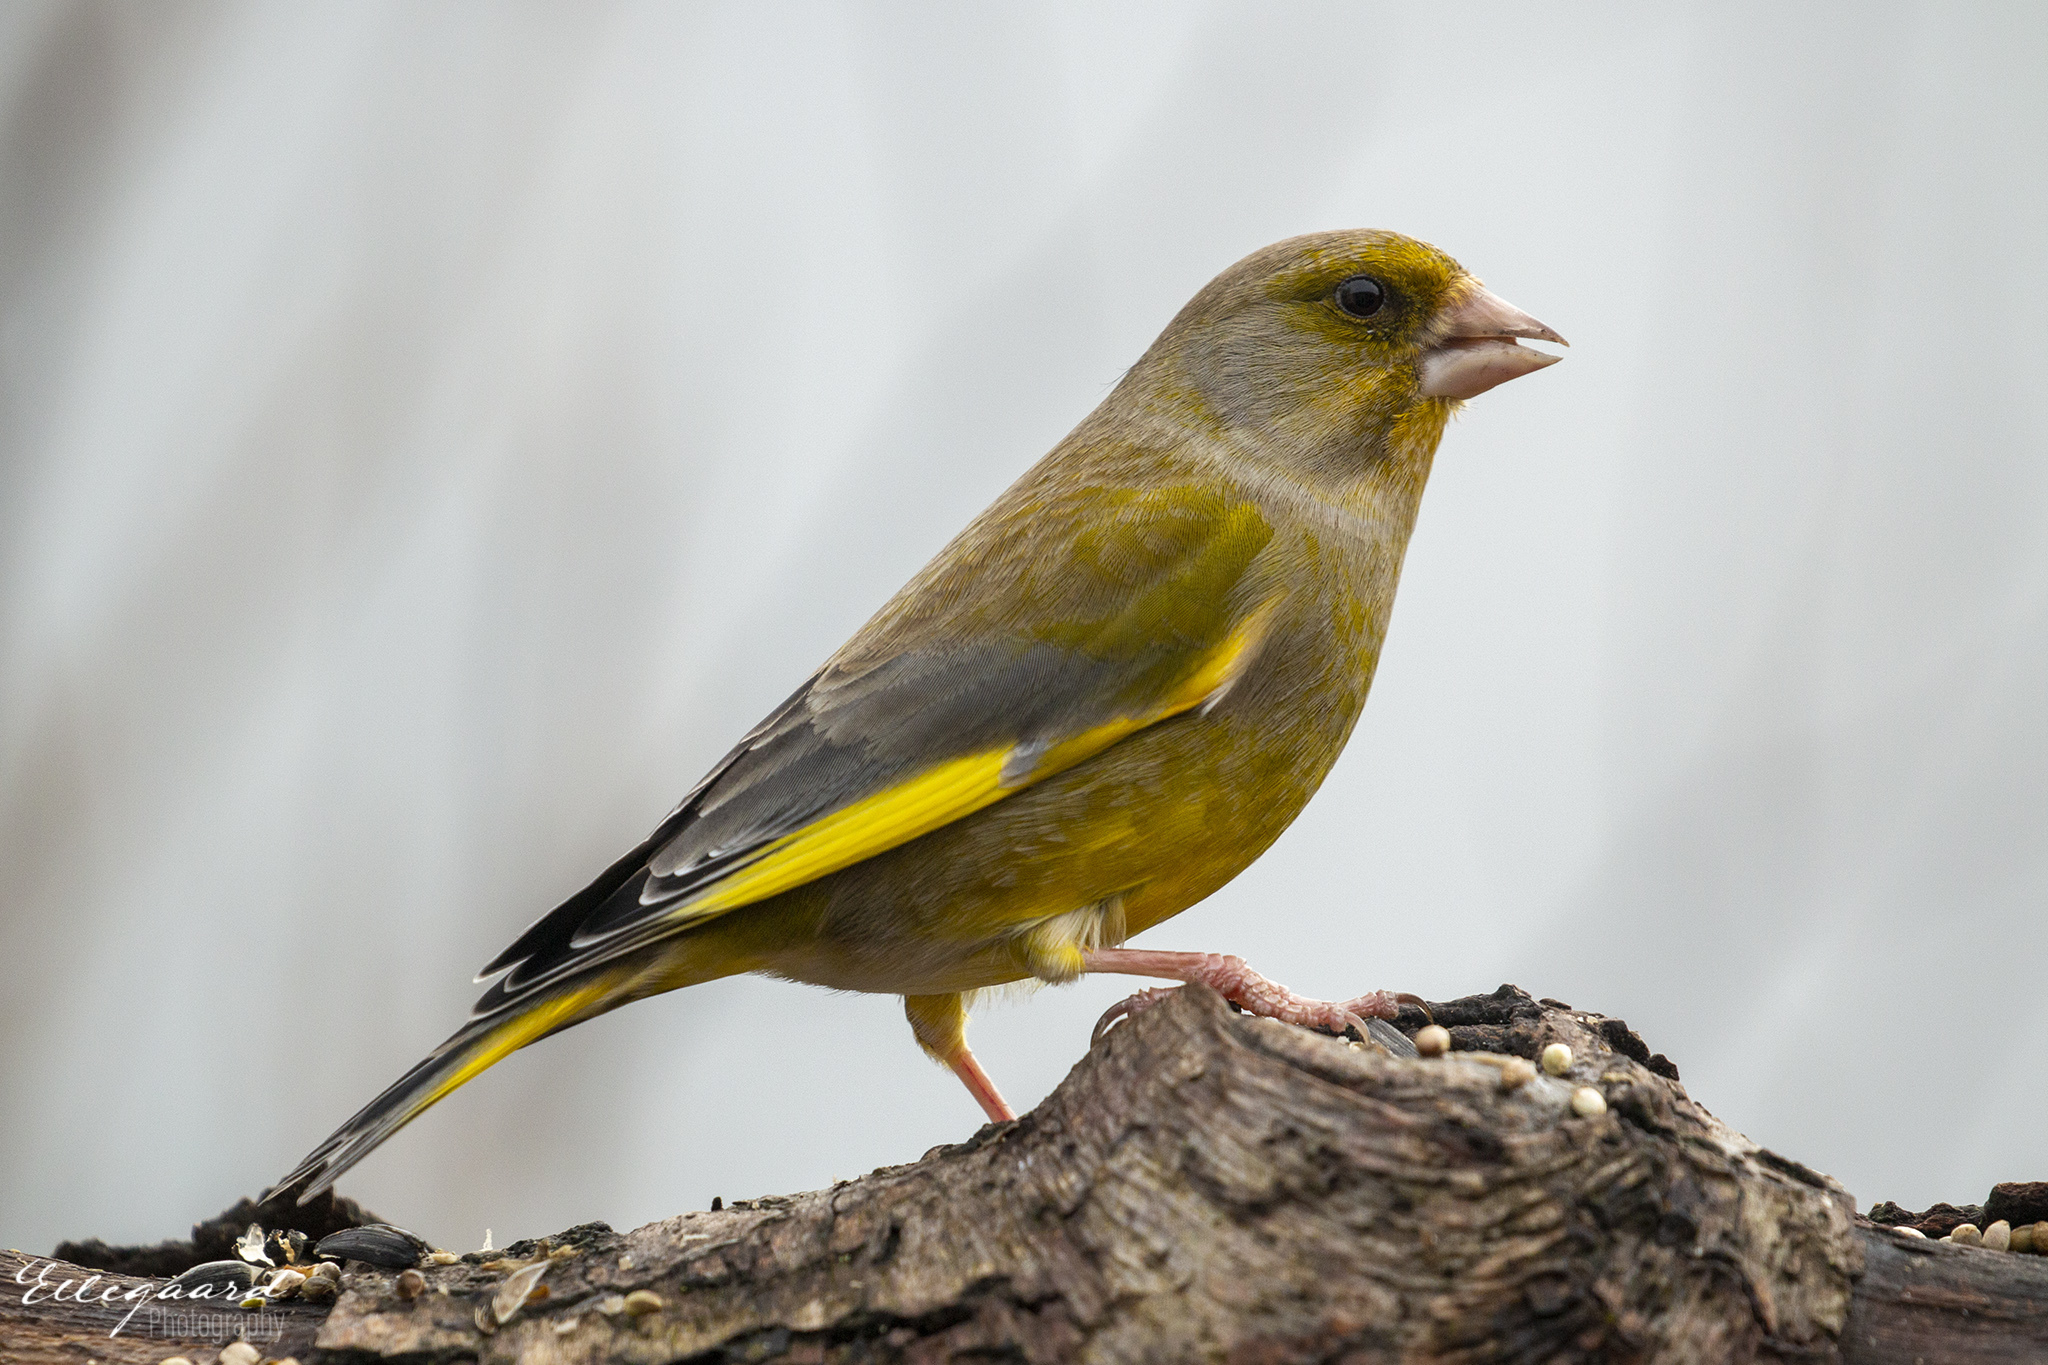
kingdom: Plantae
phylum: Tracheophyta
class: Liliopsida
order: Poales
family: Poaceae
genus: Chloris
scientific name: Chloris chloris
